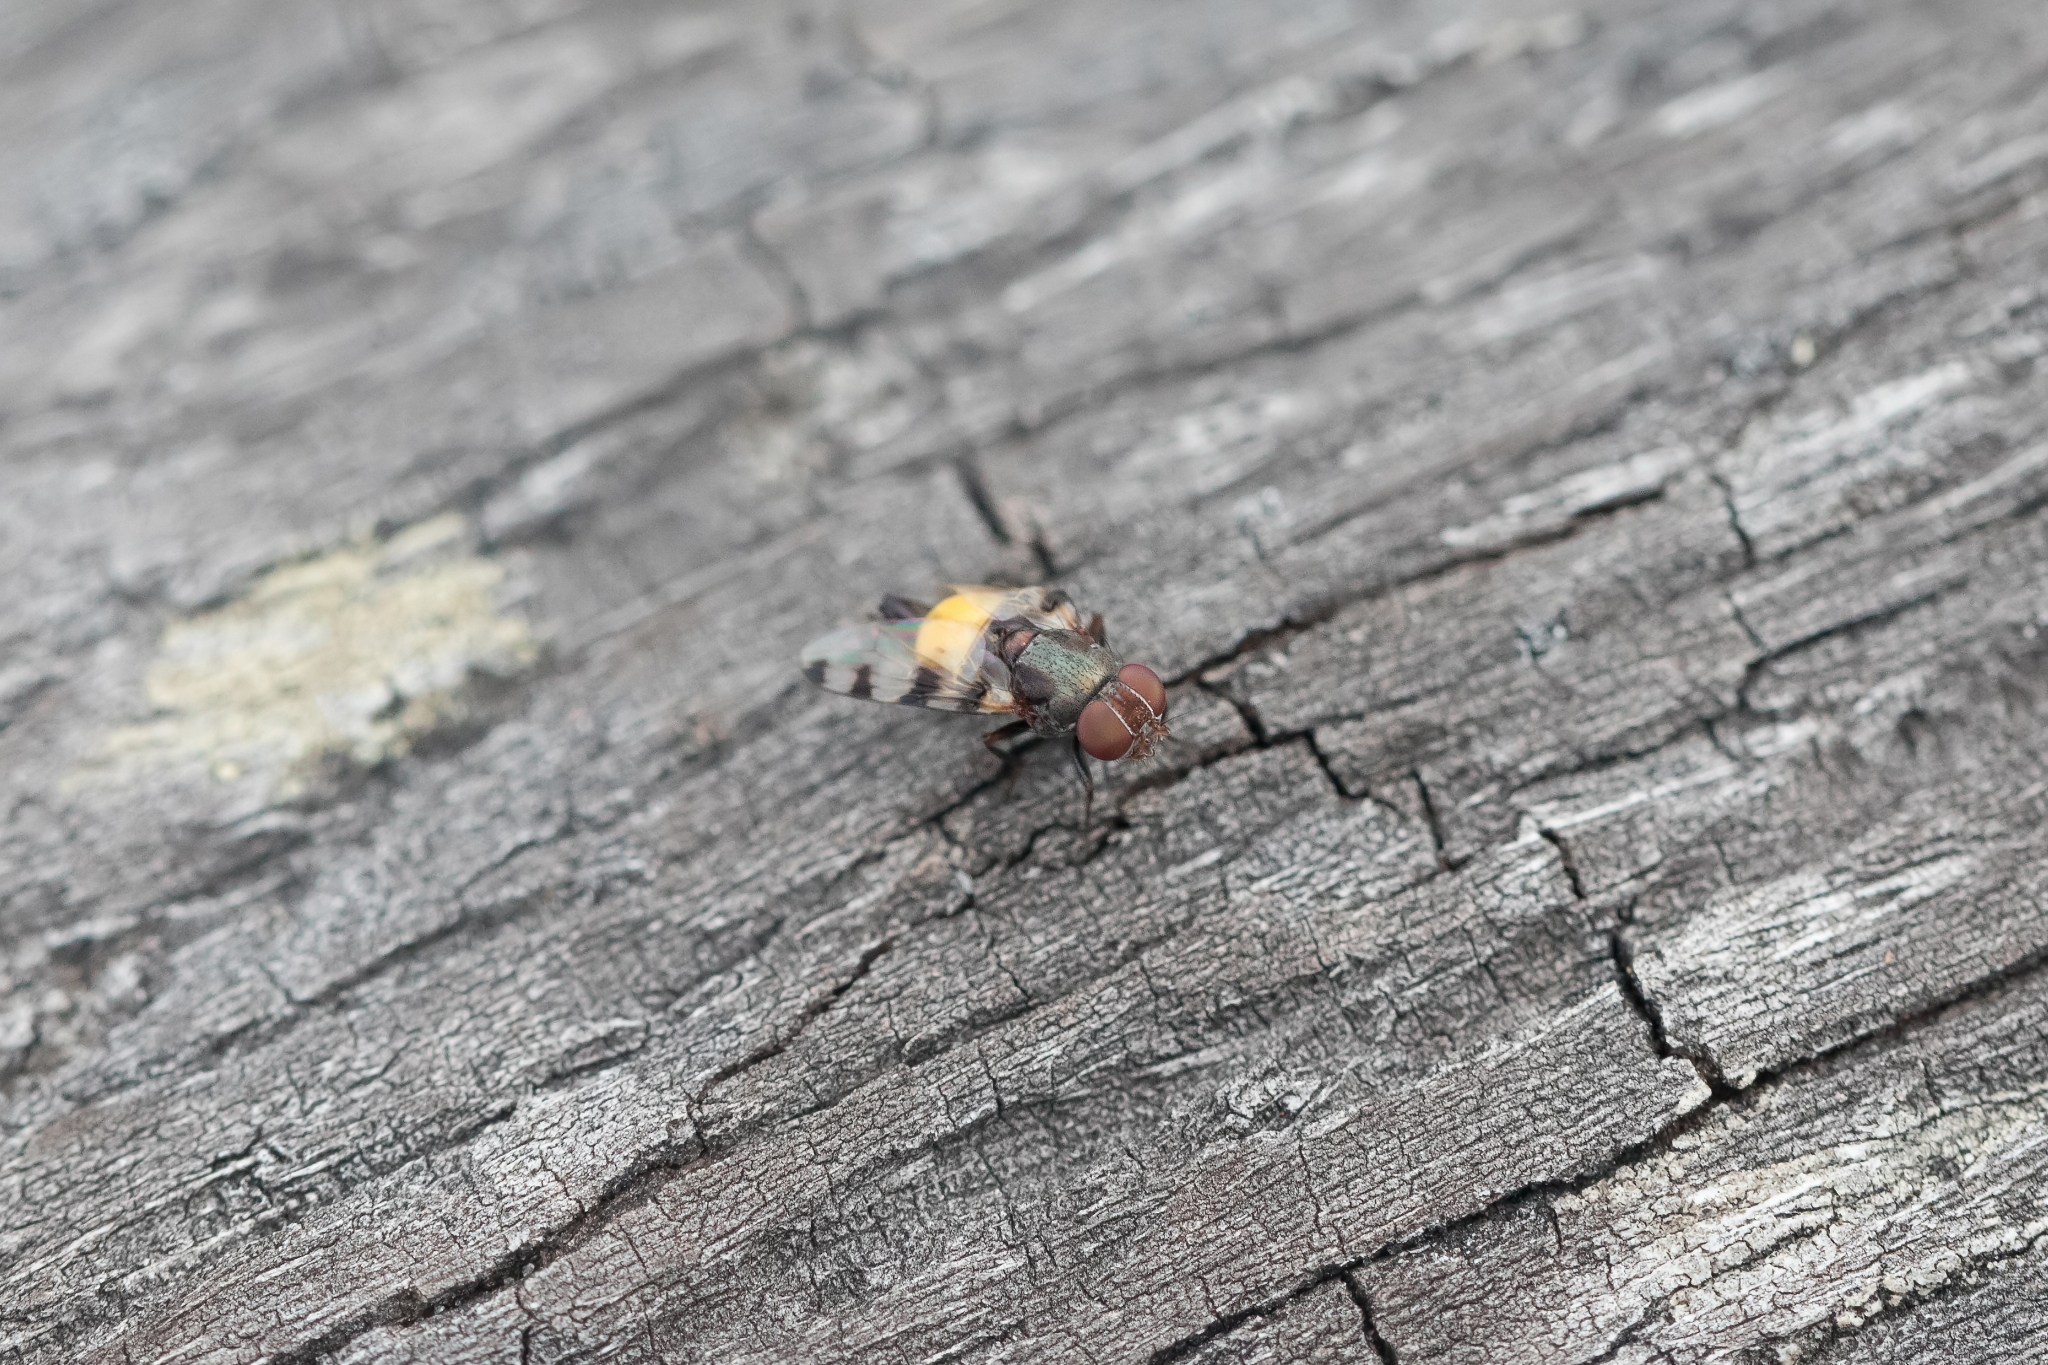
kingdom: Animalia
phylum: Arthropoda
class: Insecta
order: Diptera
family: Ulidiidae
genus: Euxesta
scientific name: Euxesta quaternaria
